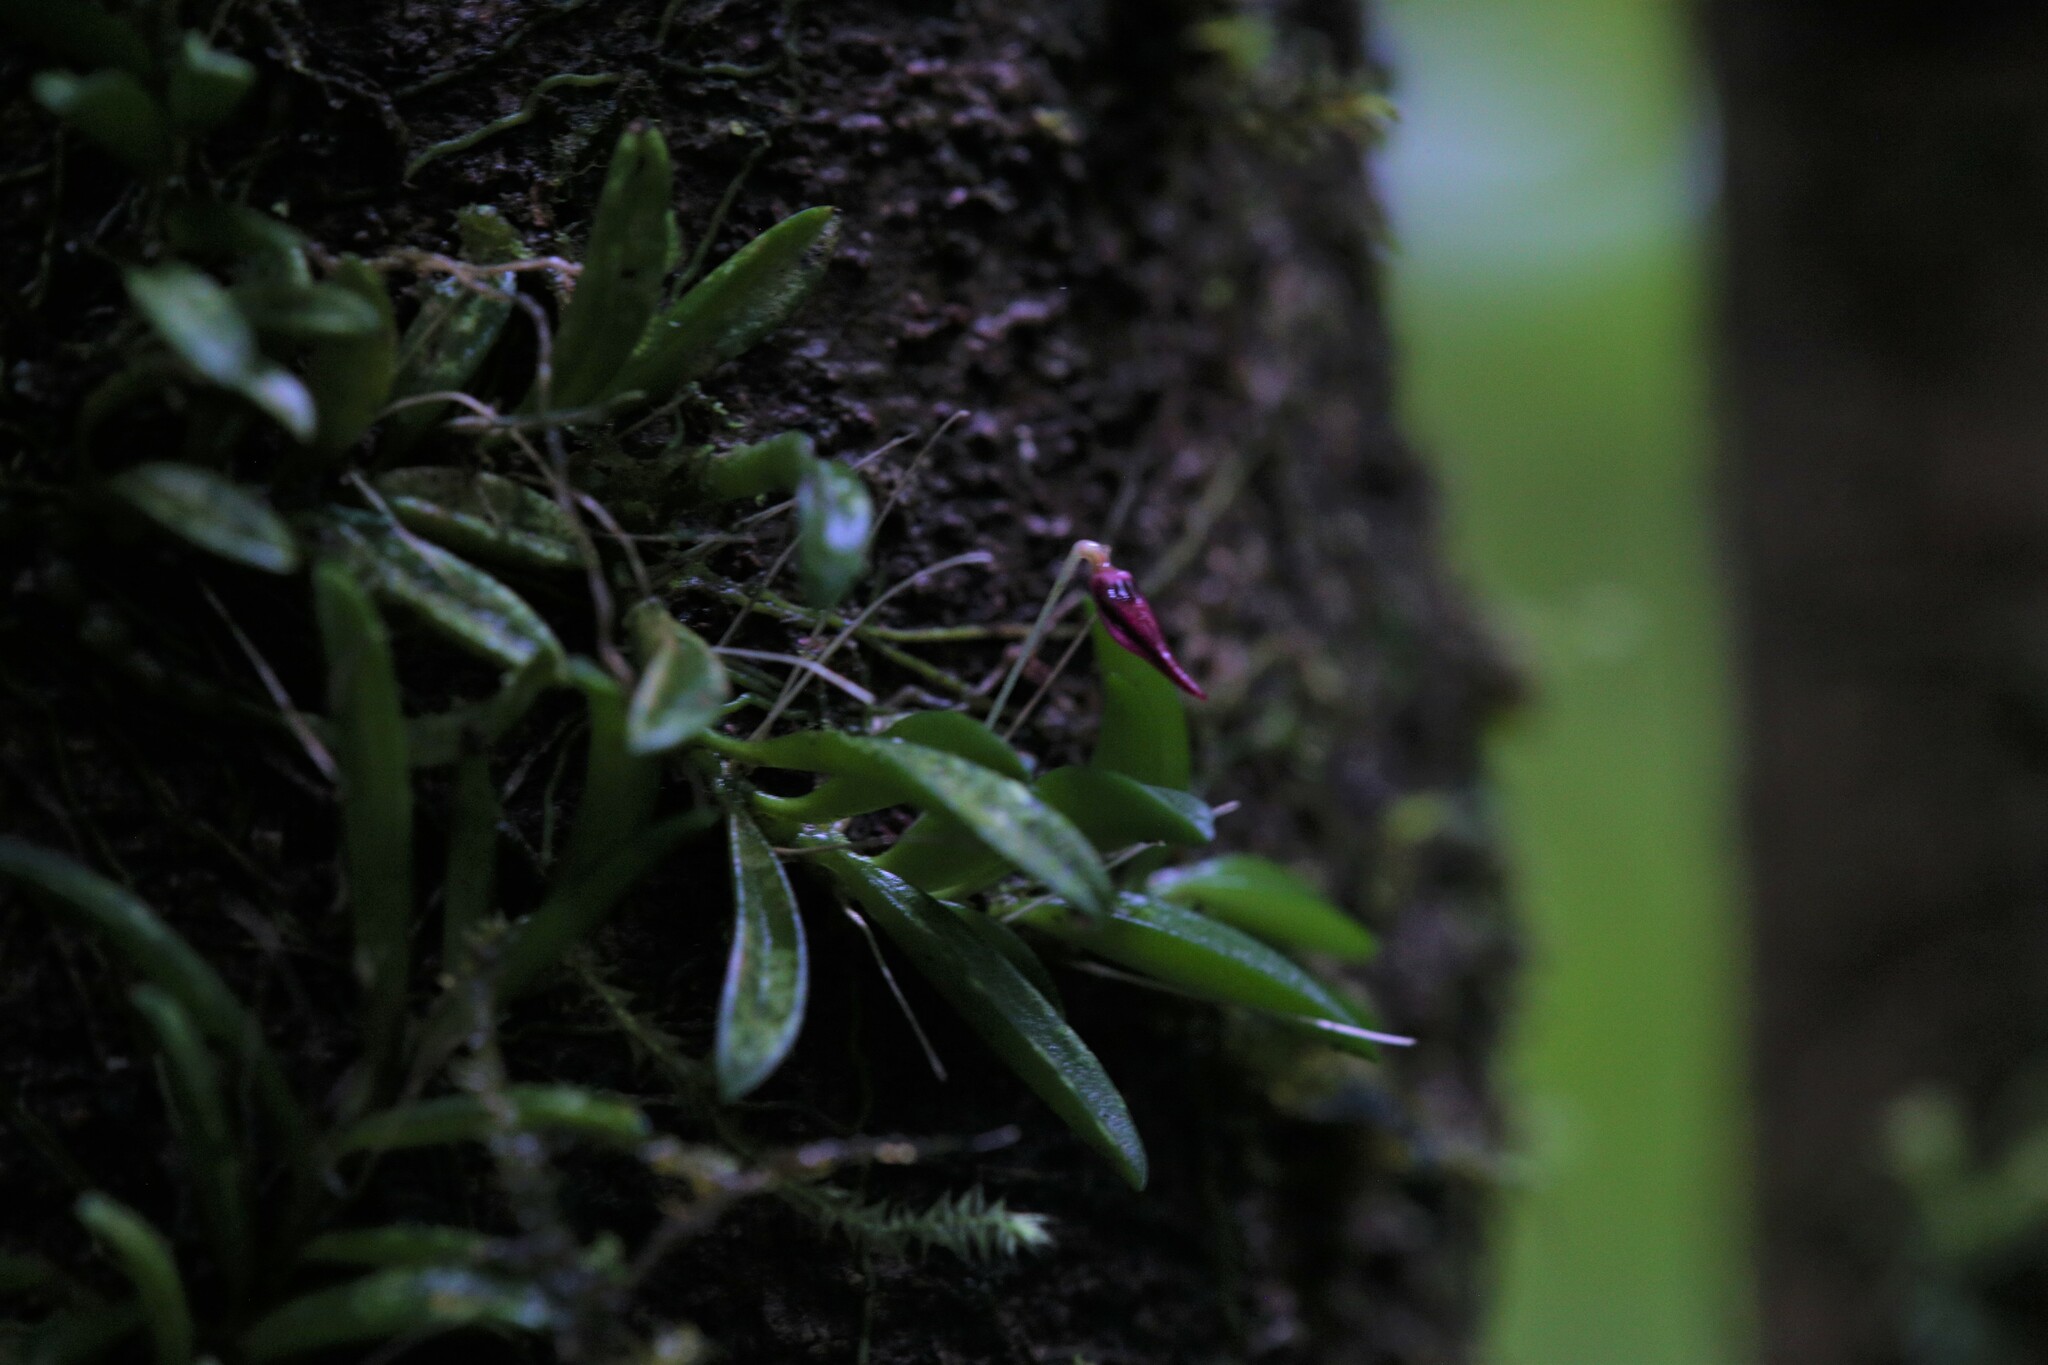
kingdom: Plantae
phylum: Tracheophyta
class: Liliopsida
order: Asparagales
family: Orchidaceae
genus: Bulbophyllum
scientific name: Bulbophyllum macphersonii
